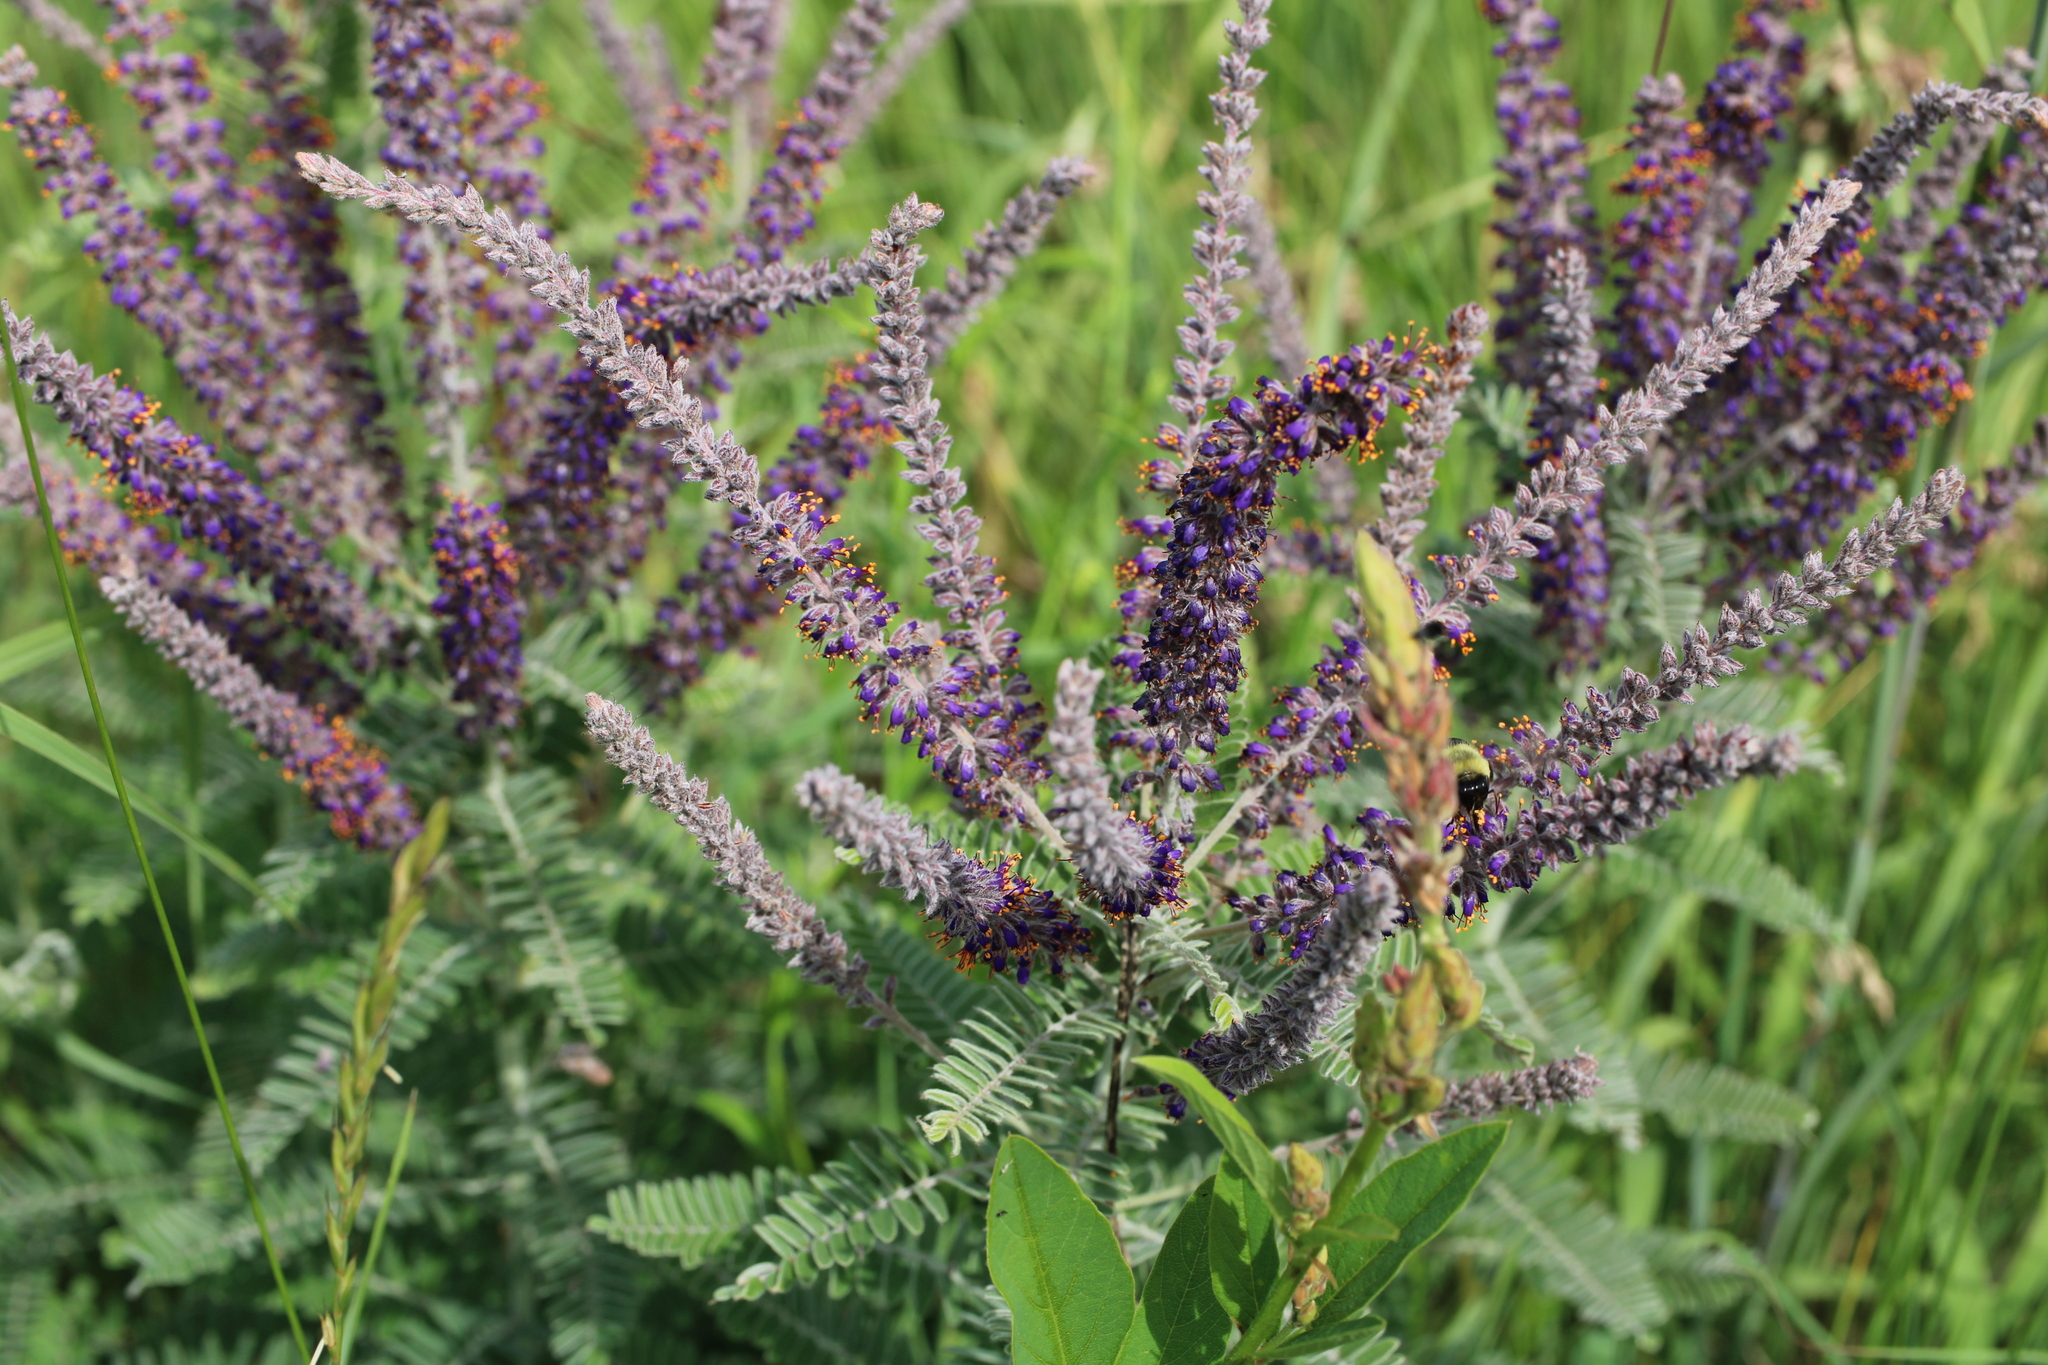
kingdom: Plantae
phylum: Tracheophyta
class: Magnoliopsida
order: Fabales
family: Fabaceae
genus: Amorpha
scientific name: Amorpha canescens
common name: Leadplant
